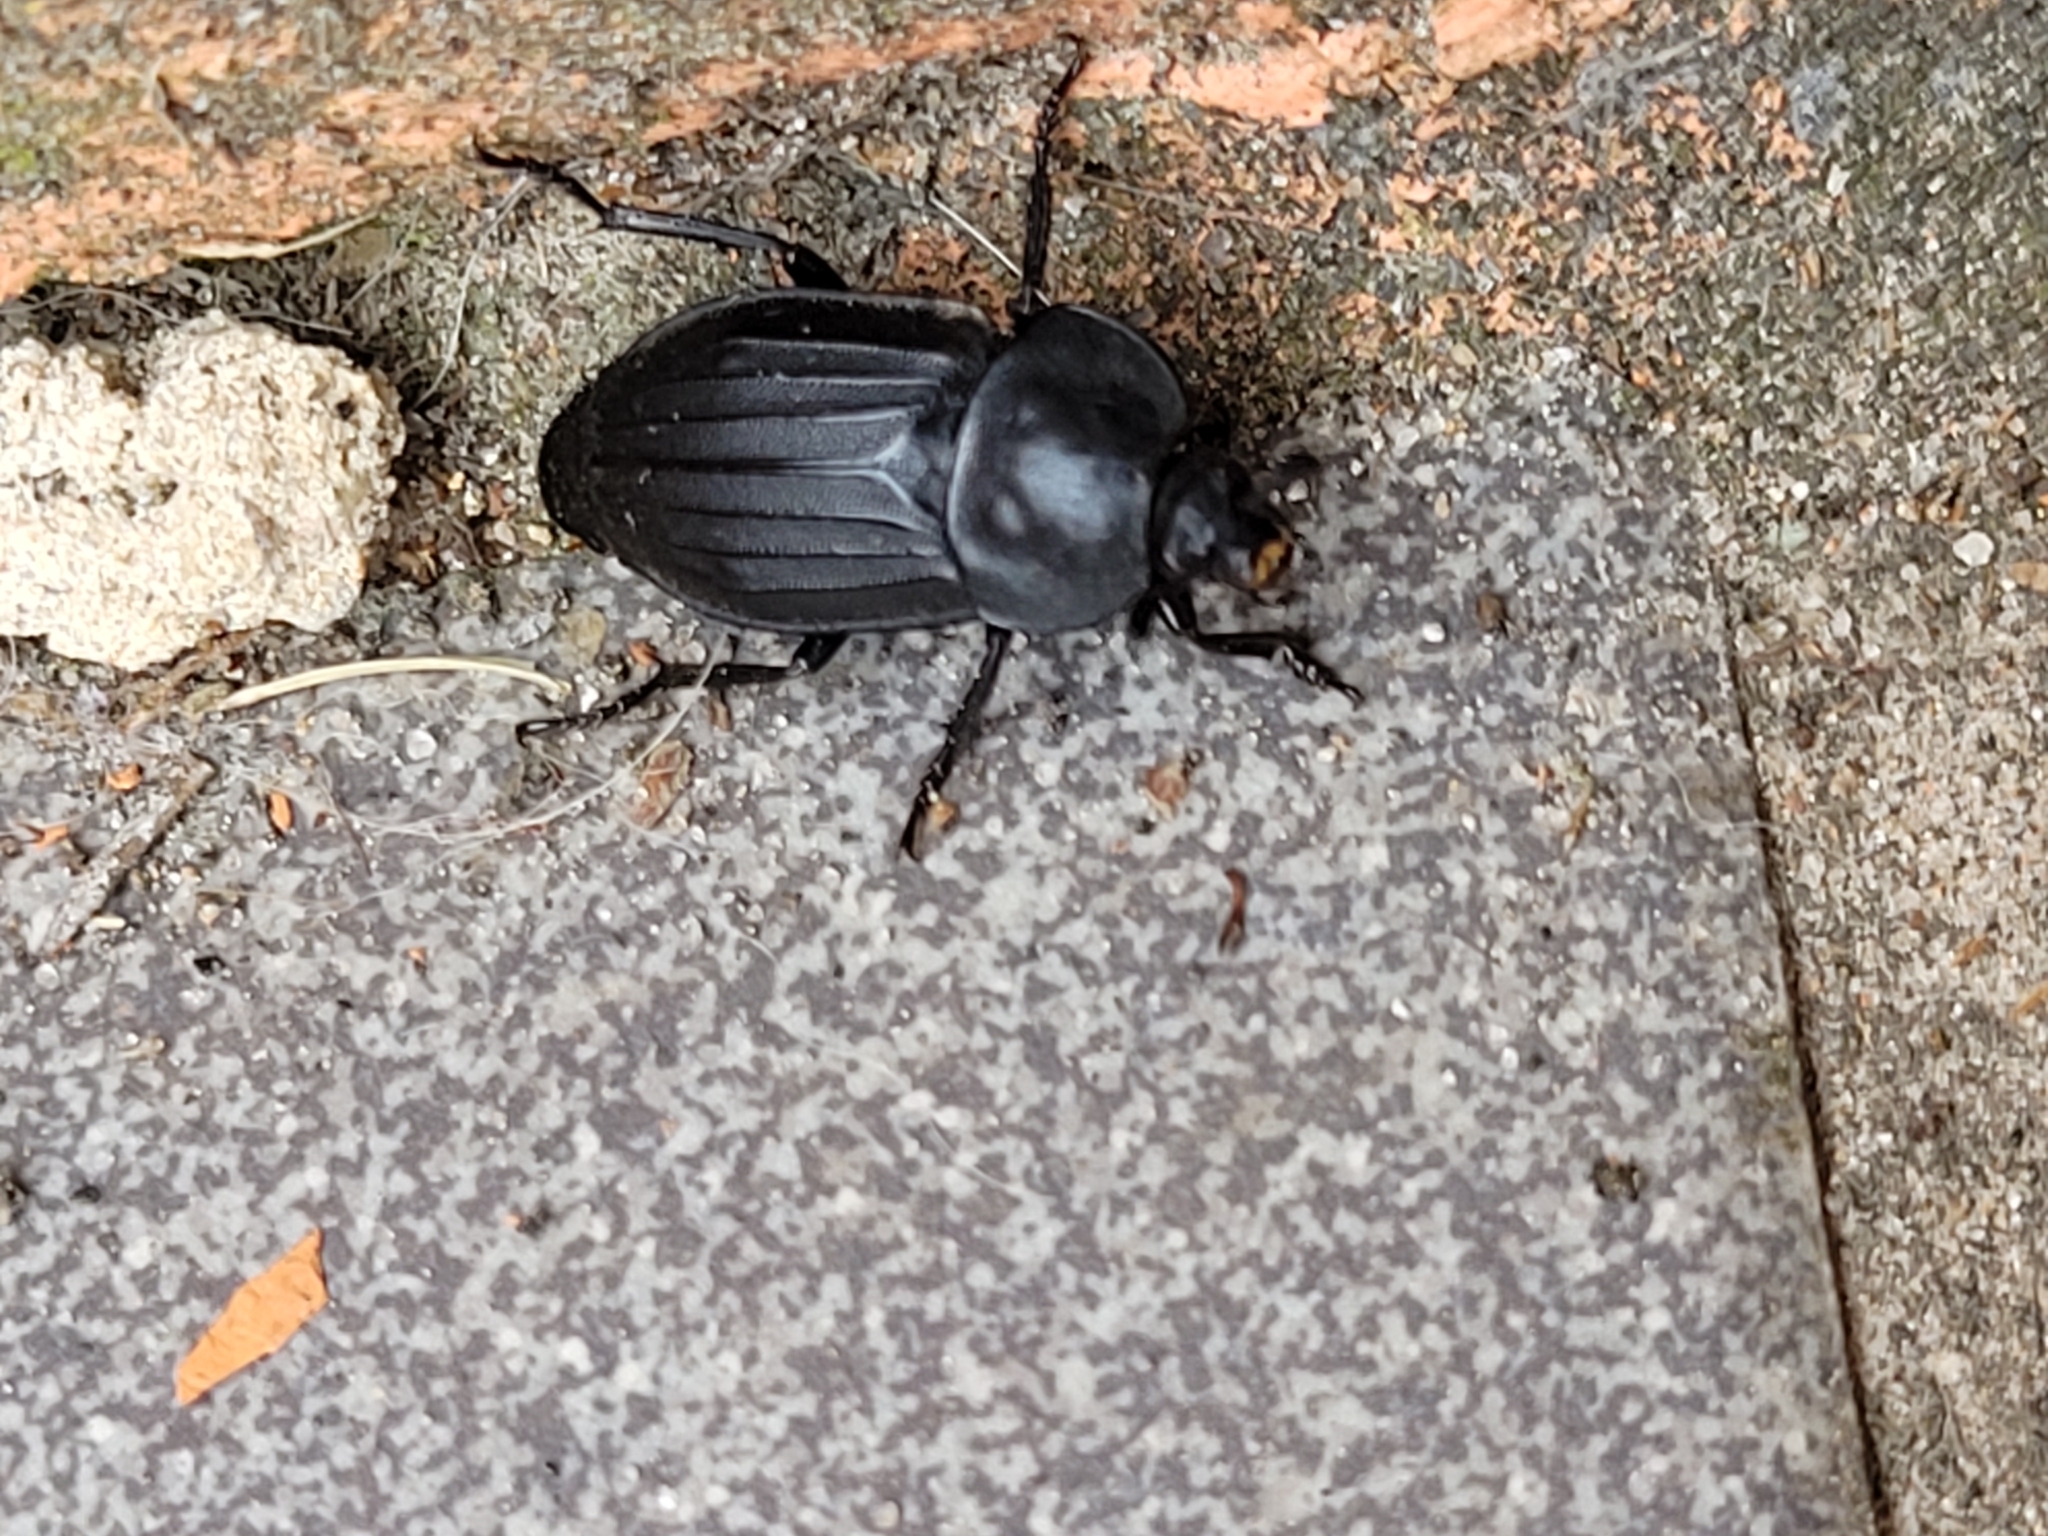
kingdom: Animalia
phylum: Arthropoda
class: Insecta
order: Coleoptera
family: Staphylinidae
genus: Silpha
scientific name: Silpha tristis
